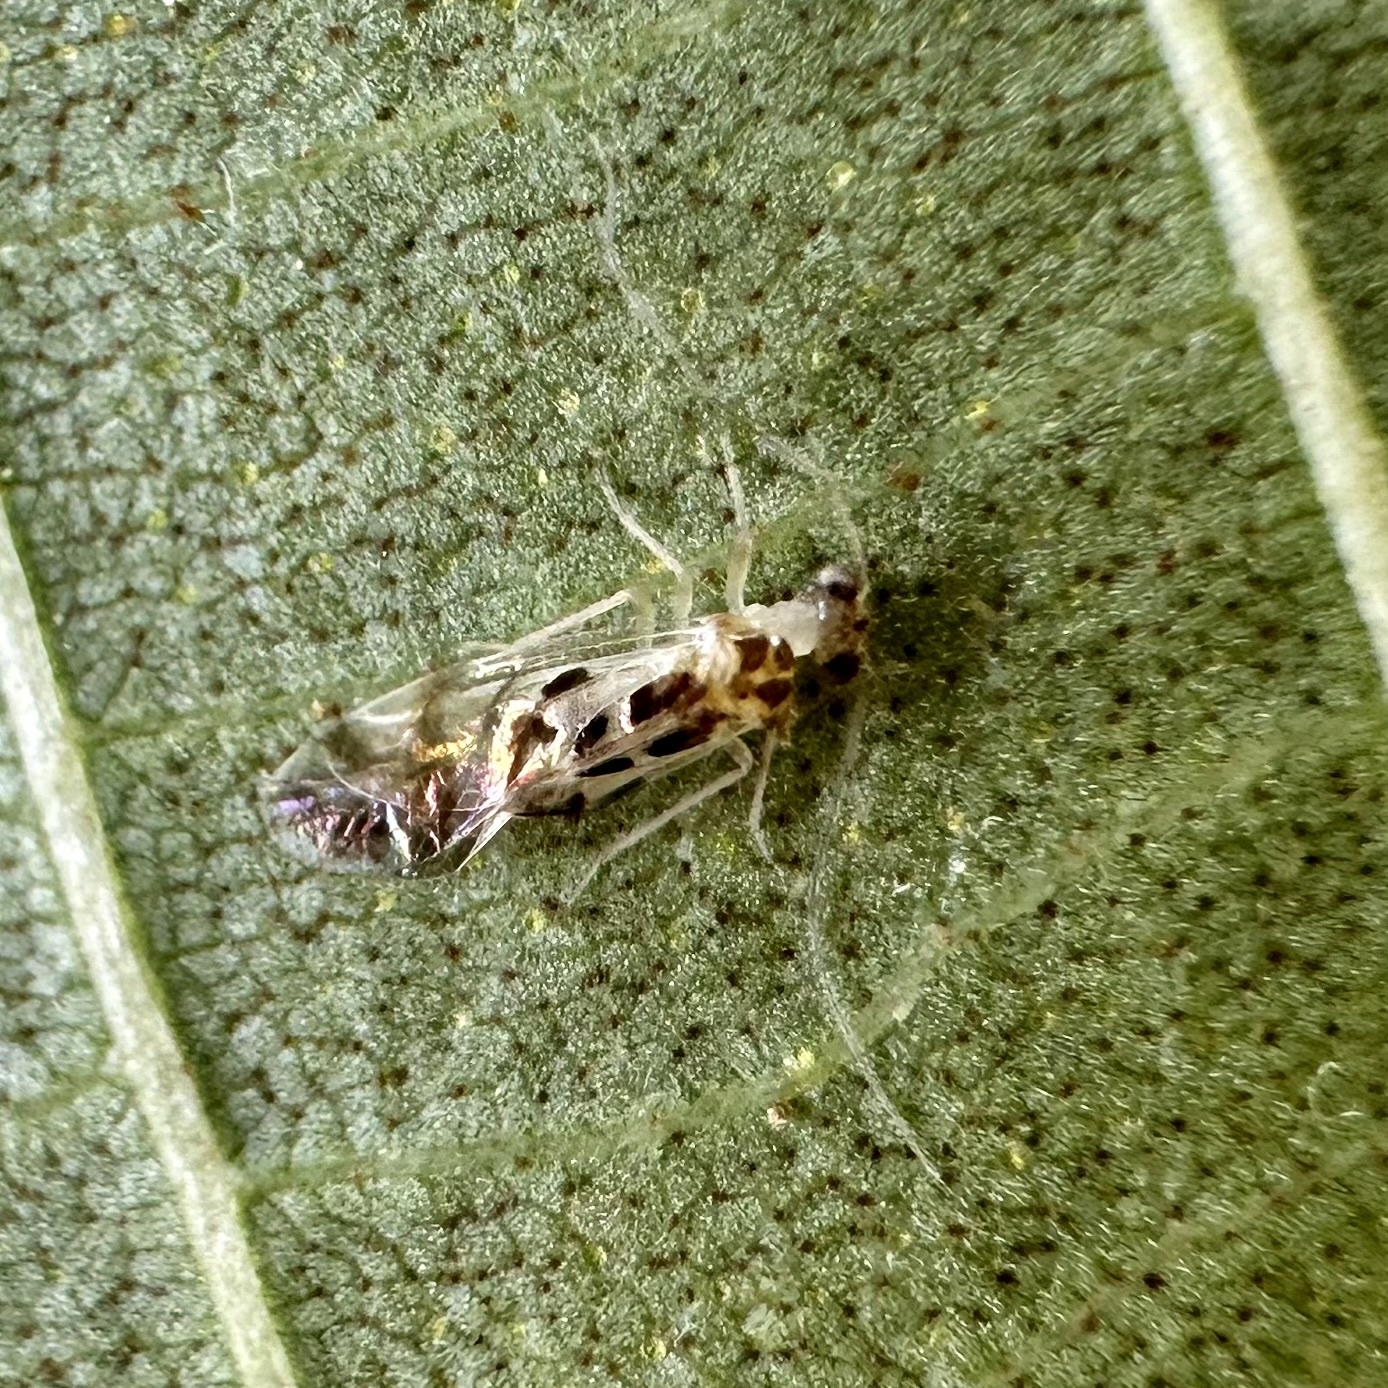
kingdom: Animalia
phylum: Arthropoda
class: Insecta
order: Psocodea
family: Stenopsocidae
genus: Graphopsocus
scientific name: Graphopsocus cruciatus
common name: Lizard bark louse
